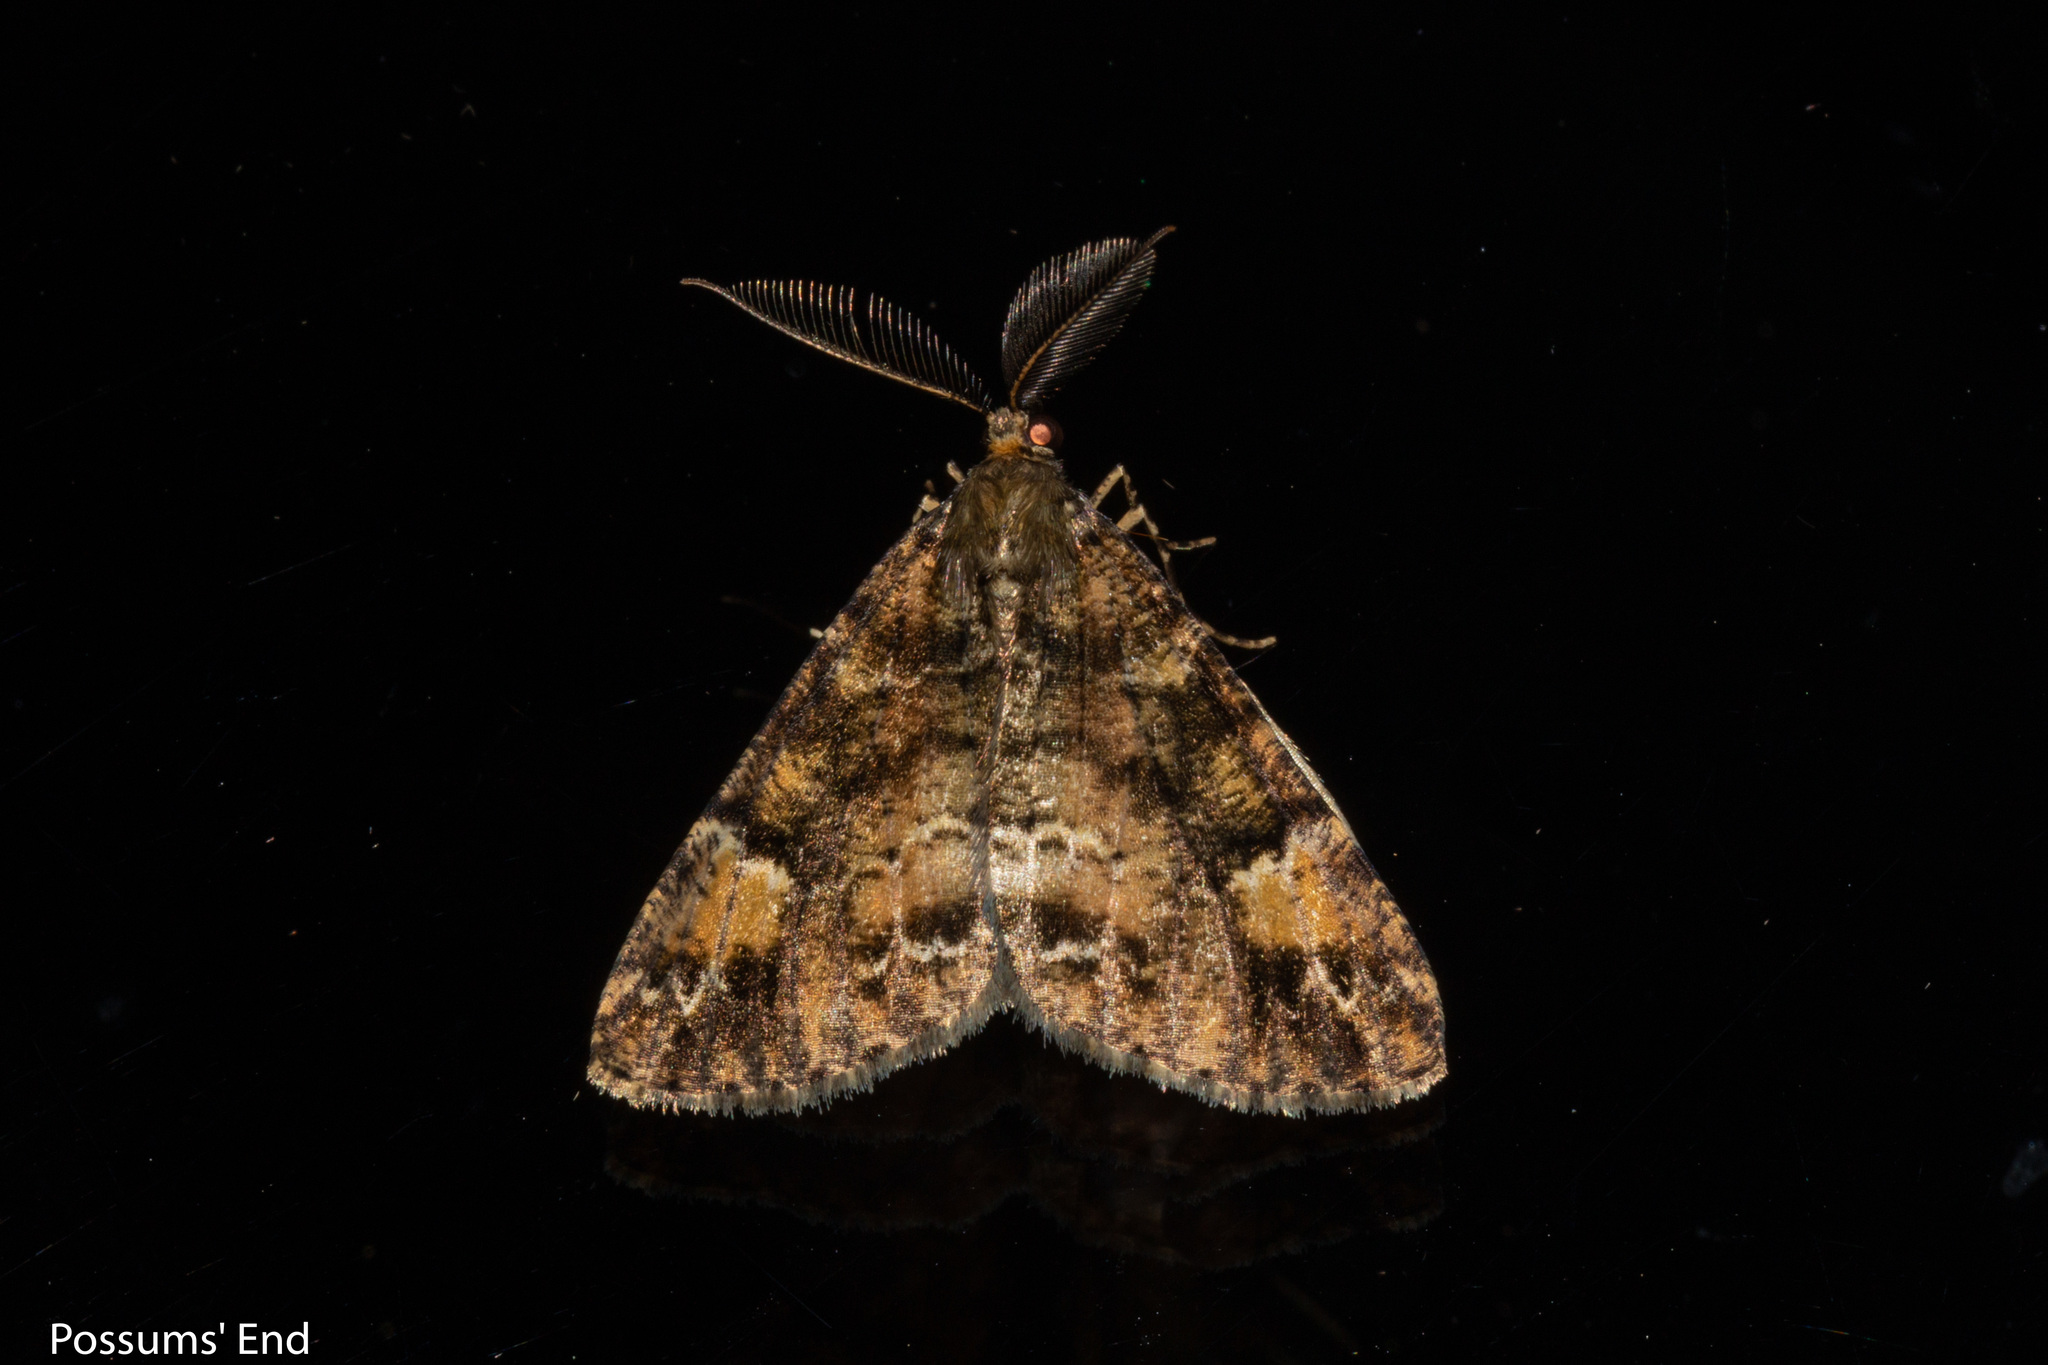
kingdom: Animalia
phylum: Arthropoda
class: Insecta
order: Lepidoptera
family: Geometridae
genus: Pseudocoremia
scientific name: Pseudocoremia productata
